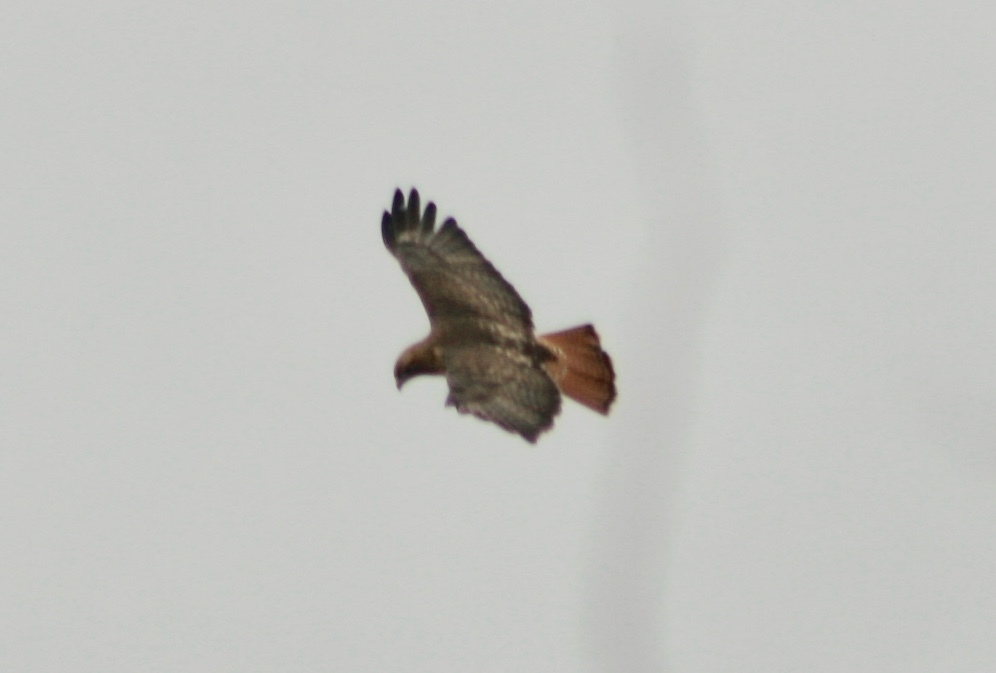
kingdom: Animalia
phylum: Chordata
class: Aves
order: Accipitriformes
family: Accipitridae
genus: Buteo
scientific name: Buteo jamaicensis
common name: Red-tailed hawk
